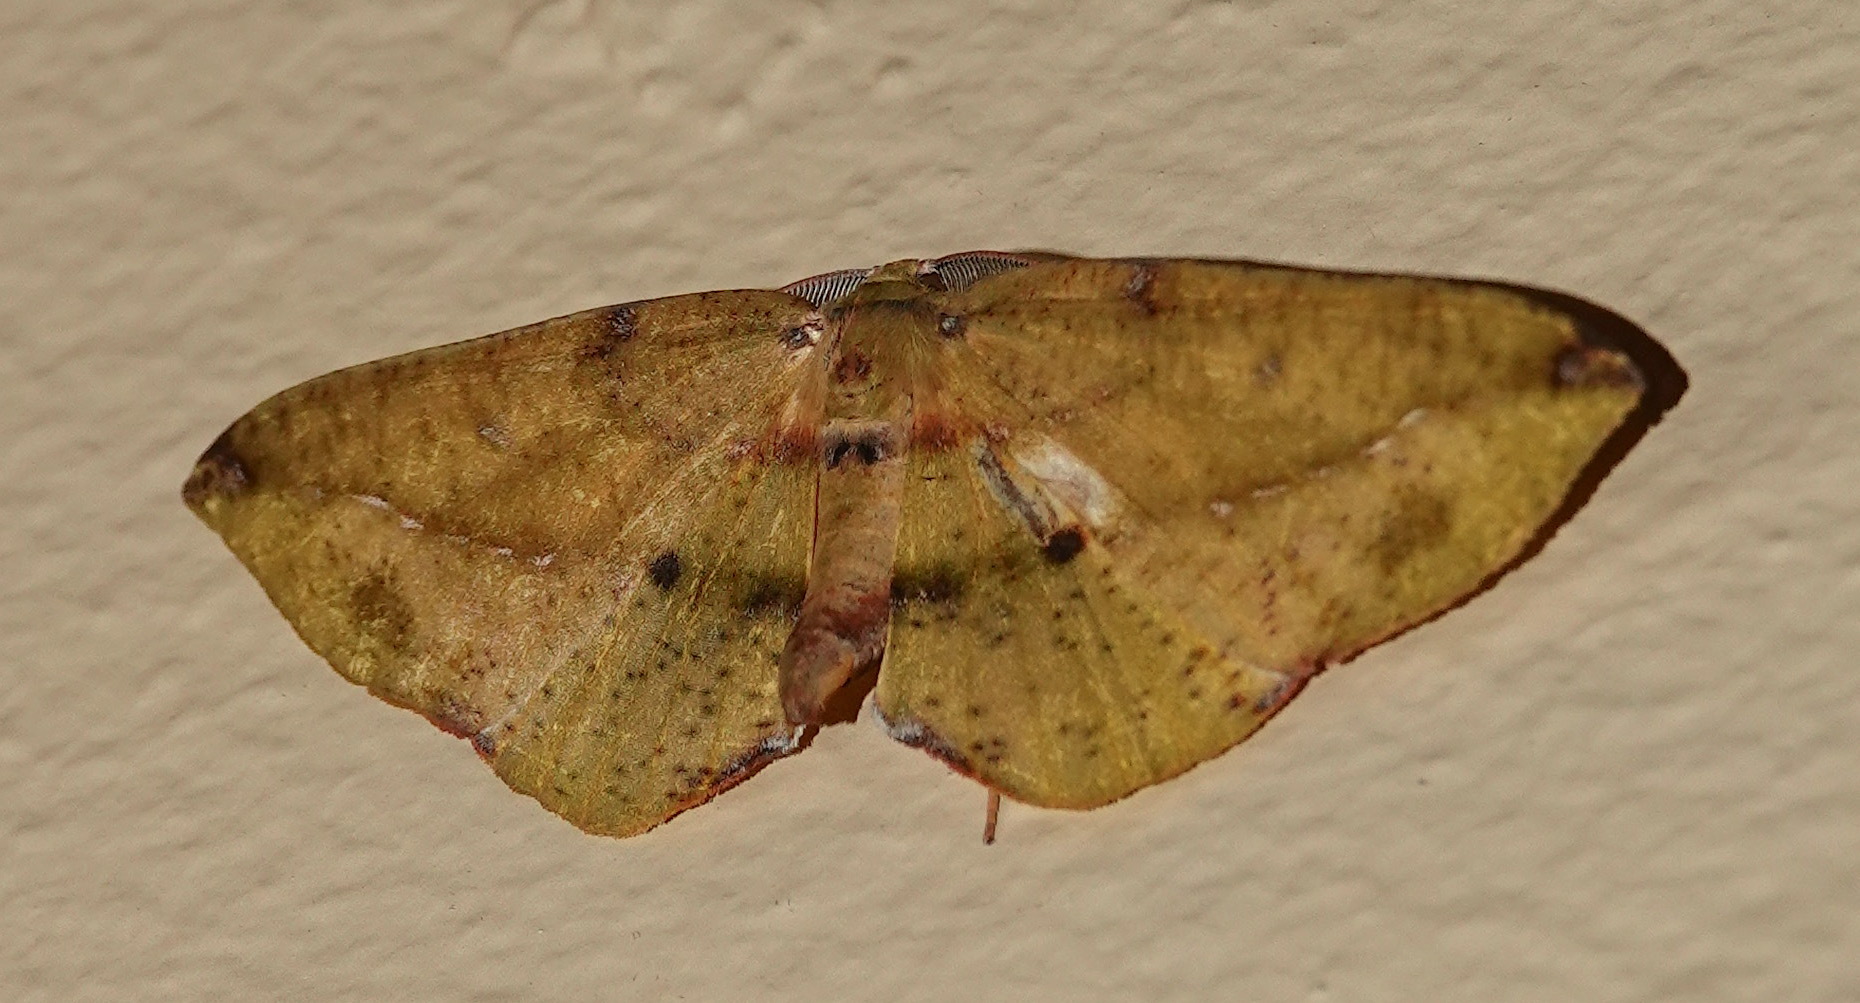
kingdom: Animalia
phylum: Arthropoda
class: Insecta
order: Lepidoptera
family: Geometridae
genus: Omiza
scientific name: Omiza herois
